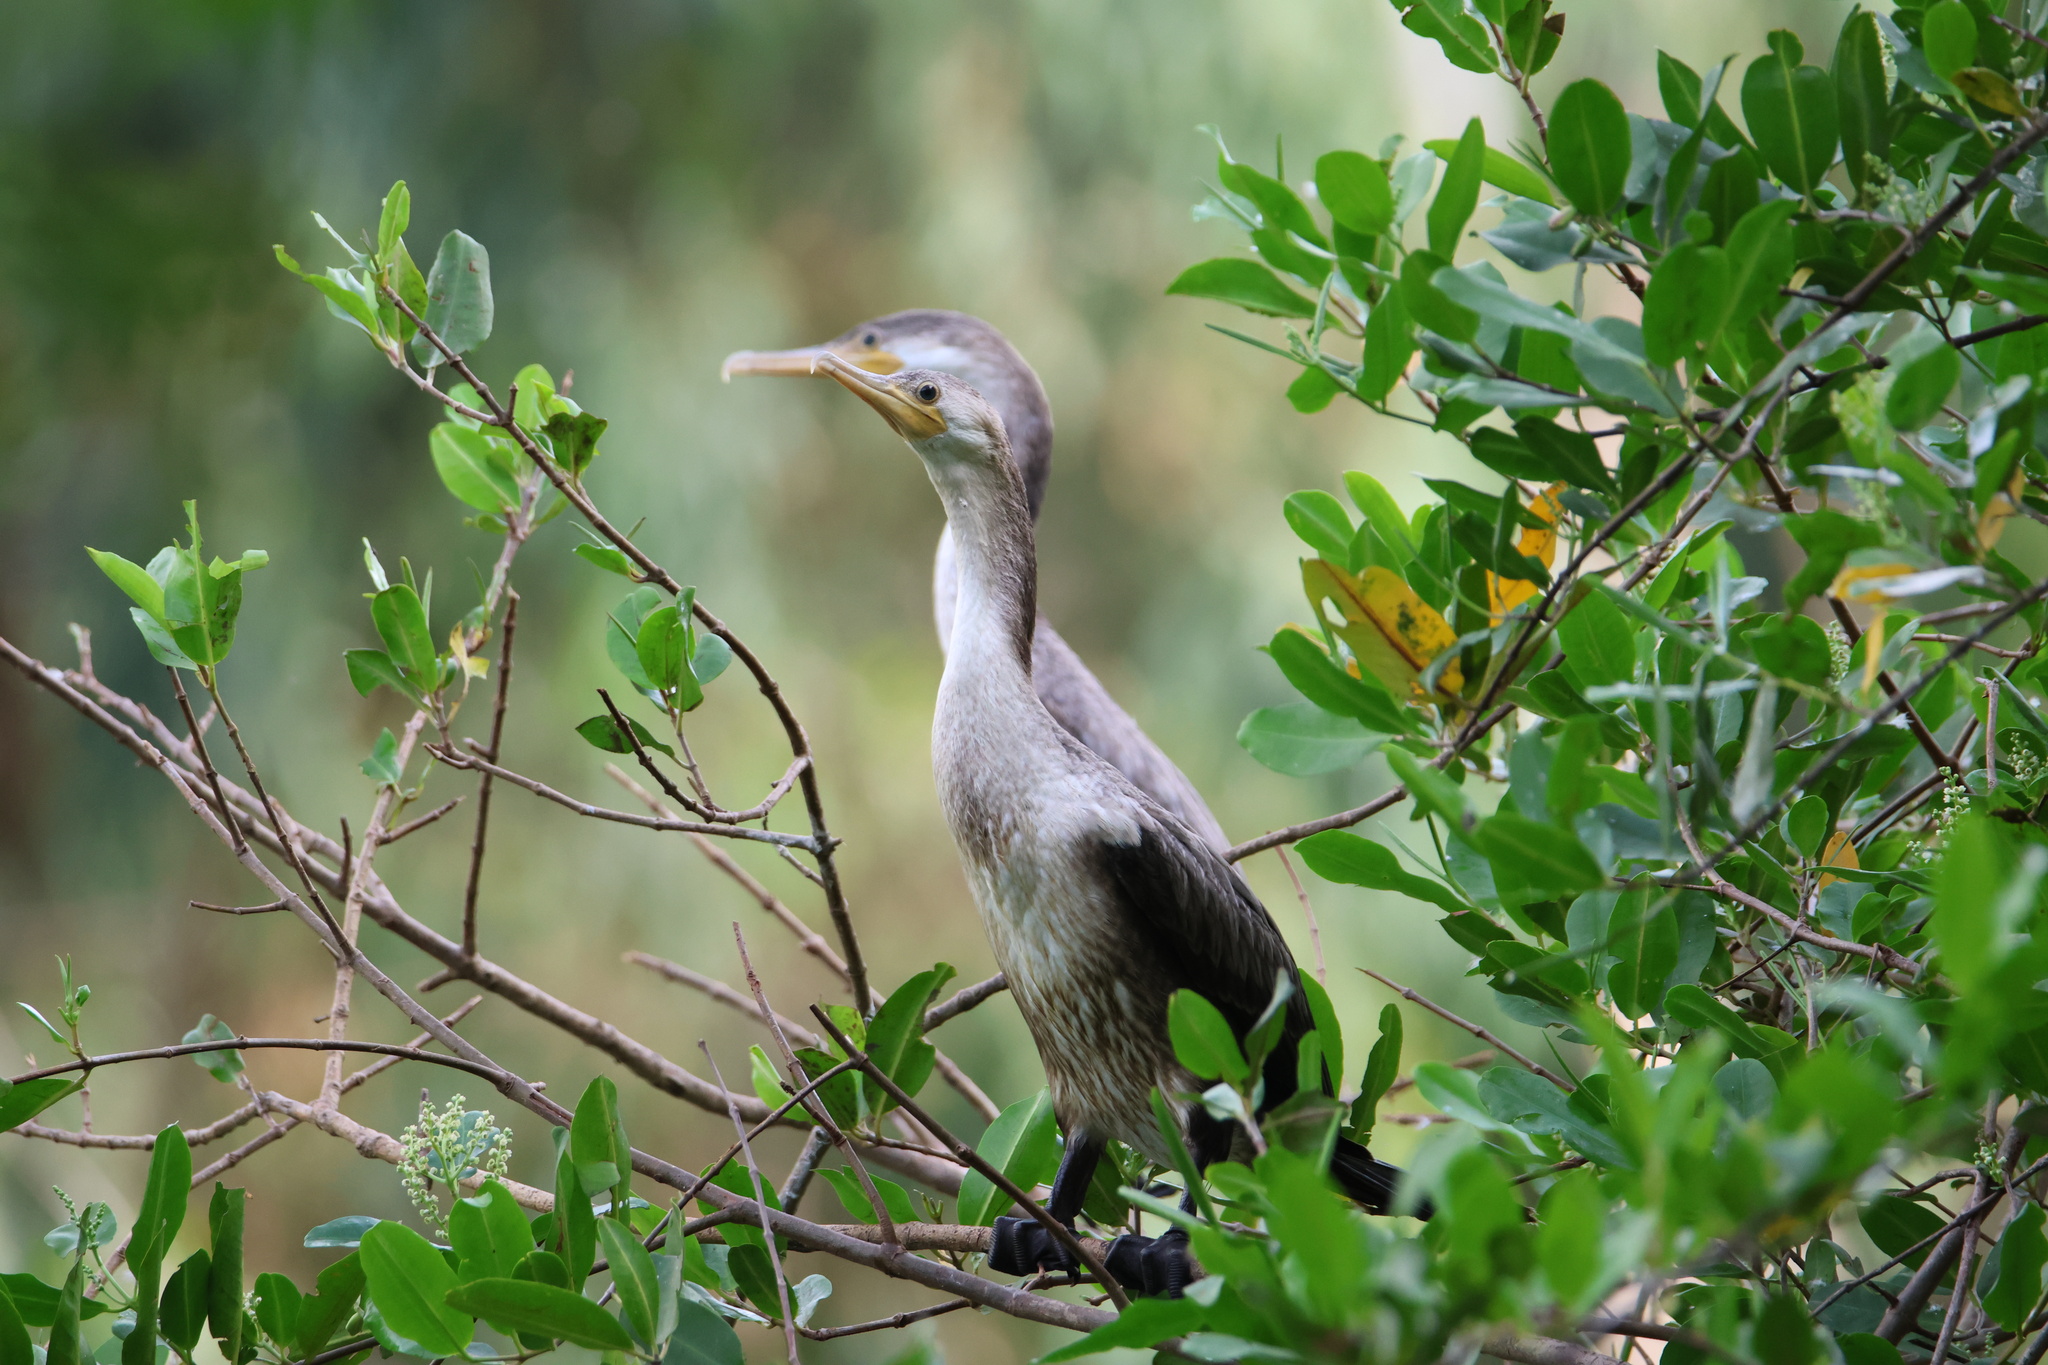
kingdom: Animalia
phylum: Chordata
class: Aves
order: Suliformes
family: Phalacrocoracidae
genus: Phalacrocorax
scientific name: Phalacrocorax brasilianus
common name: Neotropic cormorant
